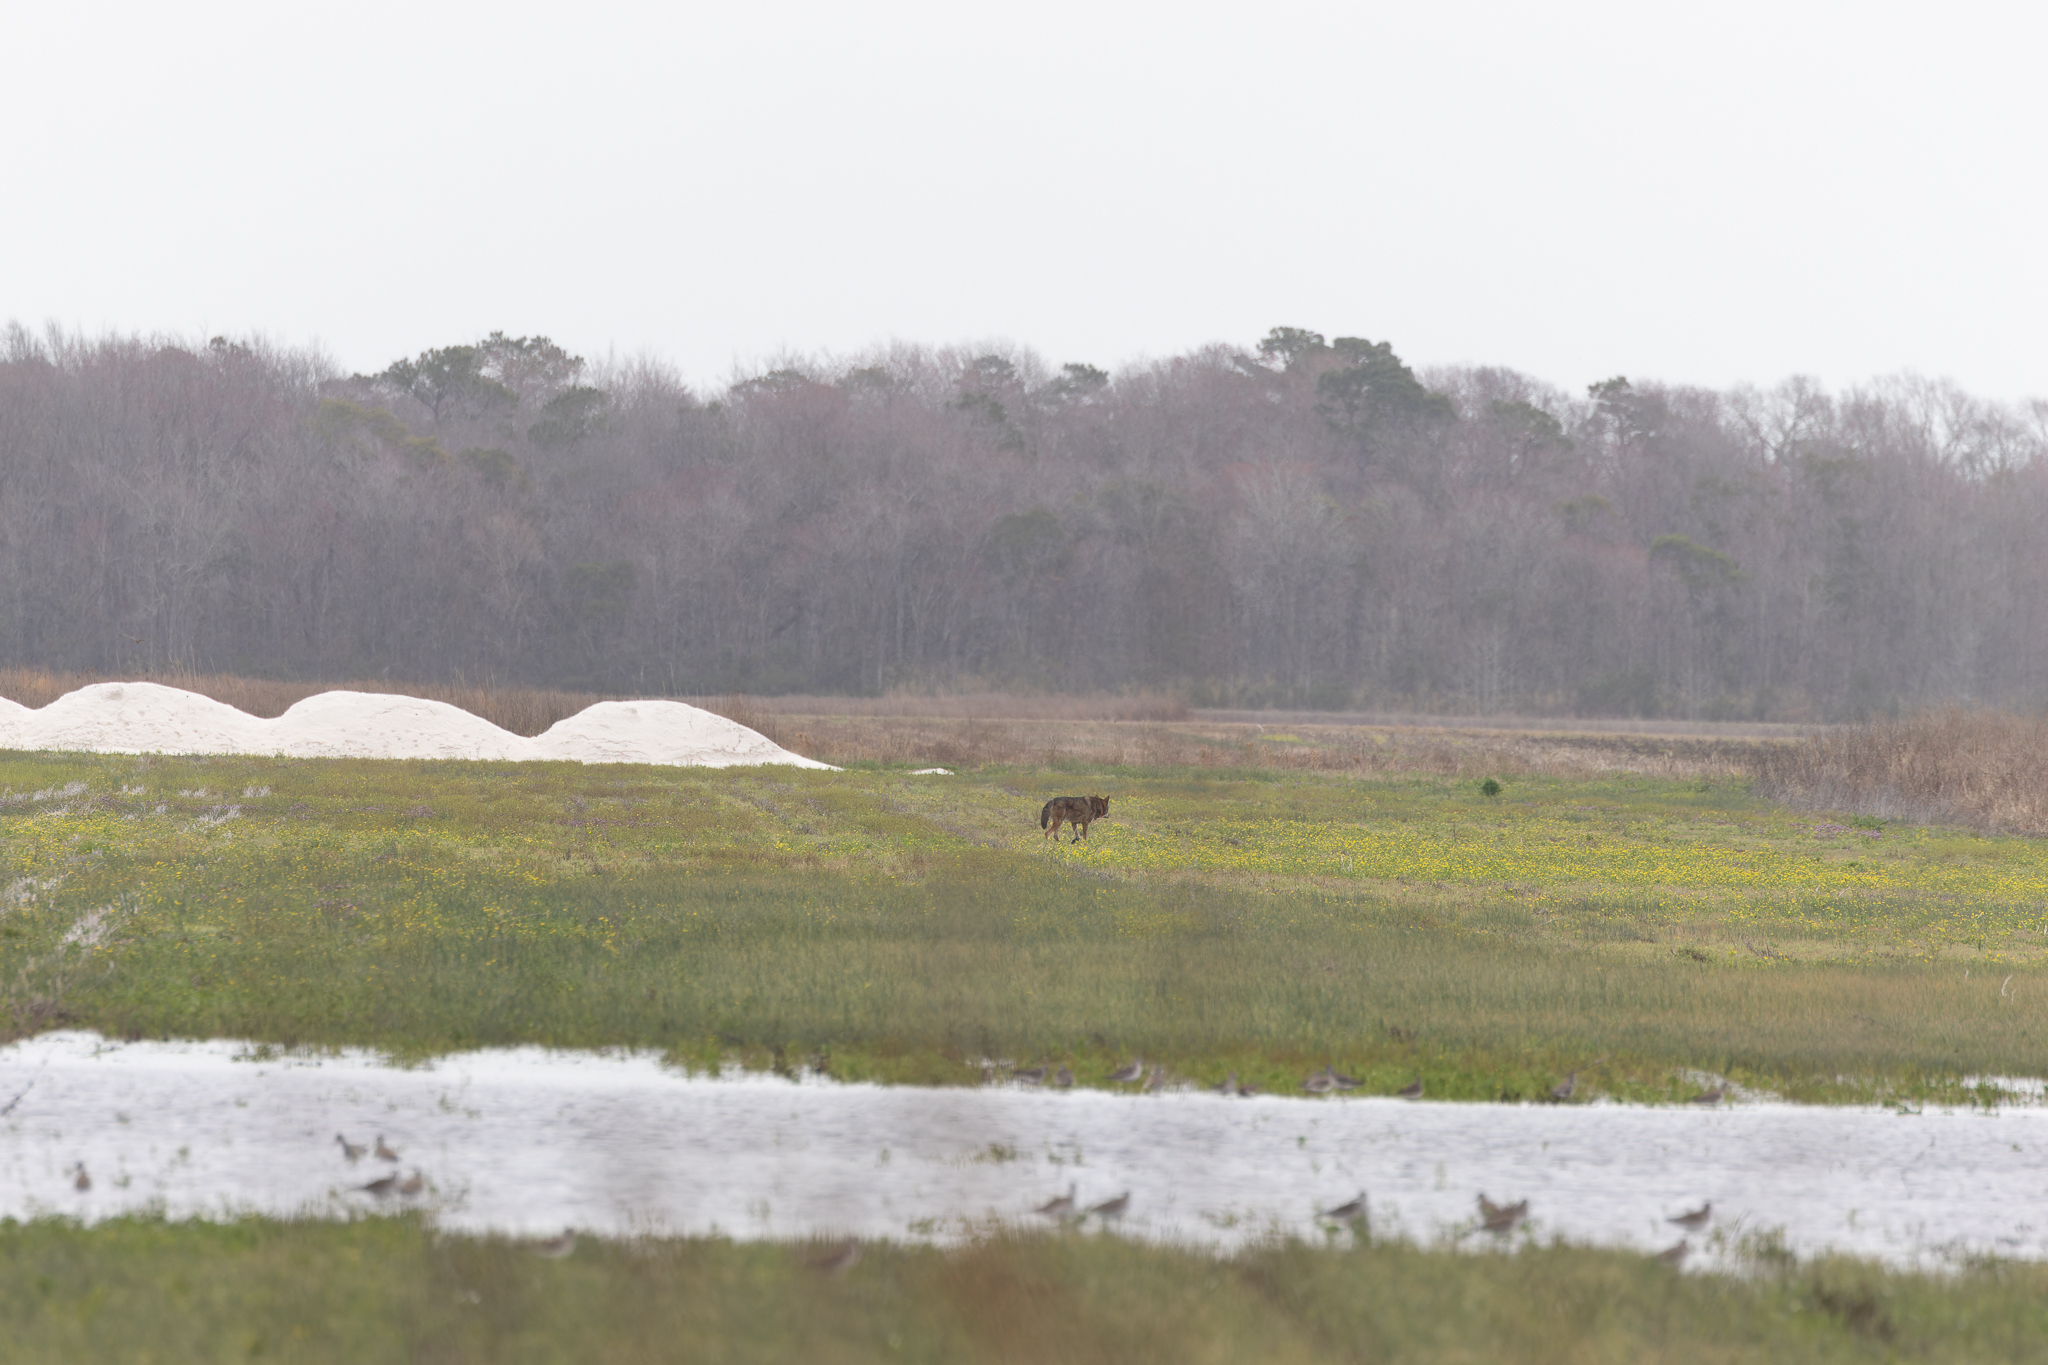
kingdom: Animalia
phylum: Chordata
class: Mammalia
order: Carnivora
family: Canidae
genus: Canis
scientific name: Canis lupus
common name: Gray wolf
